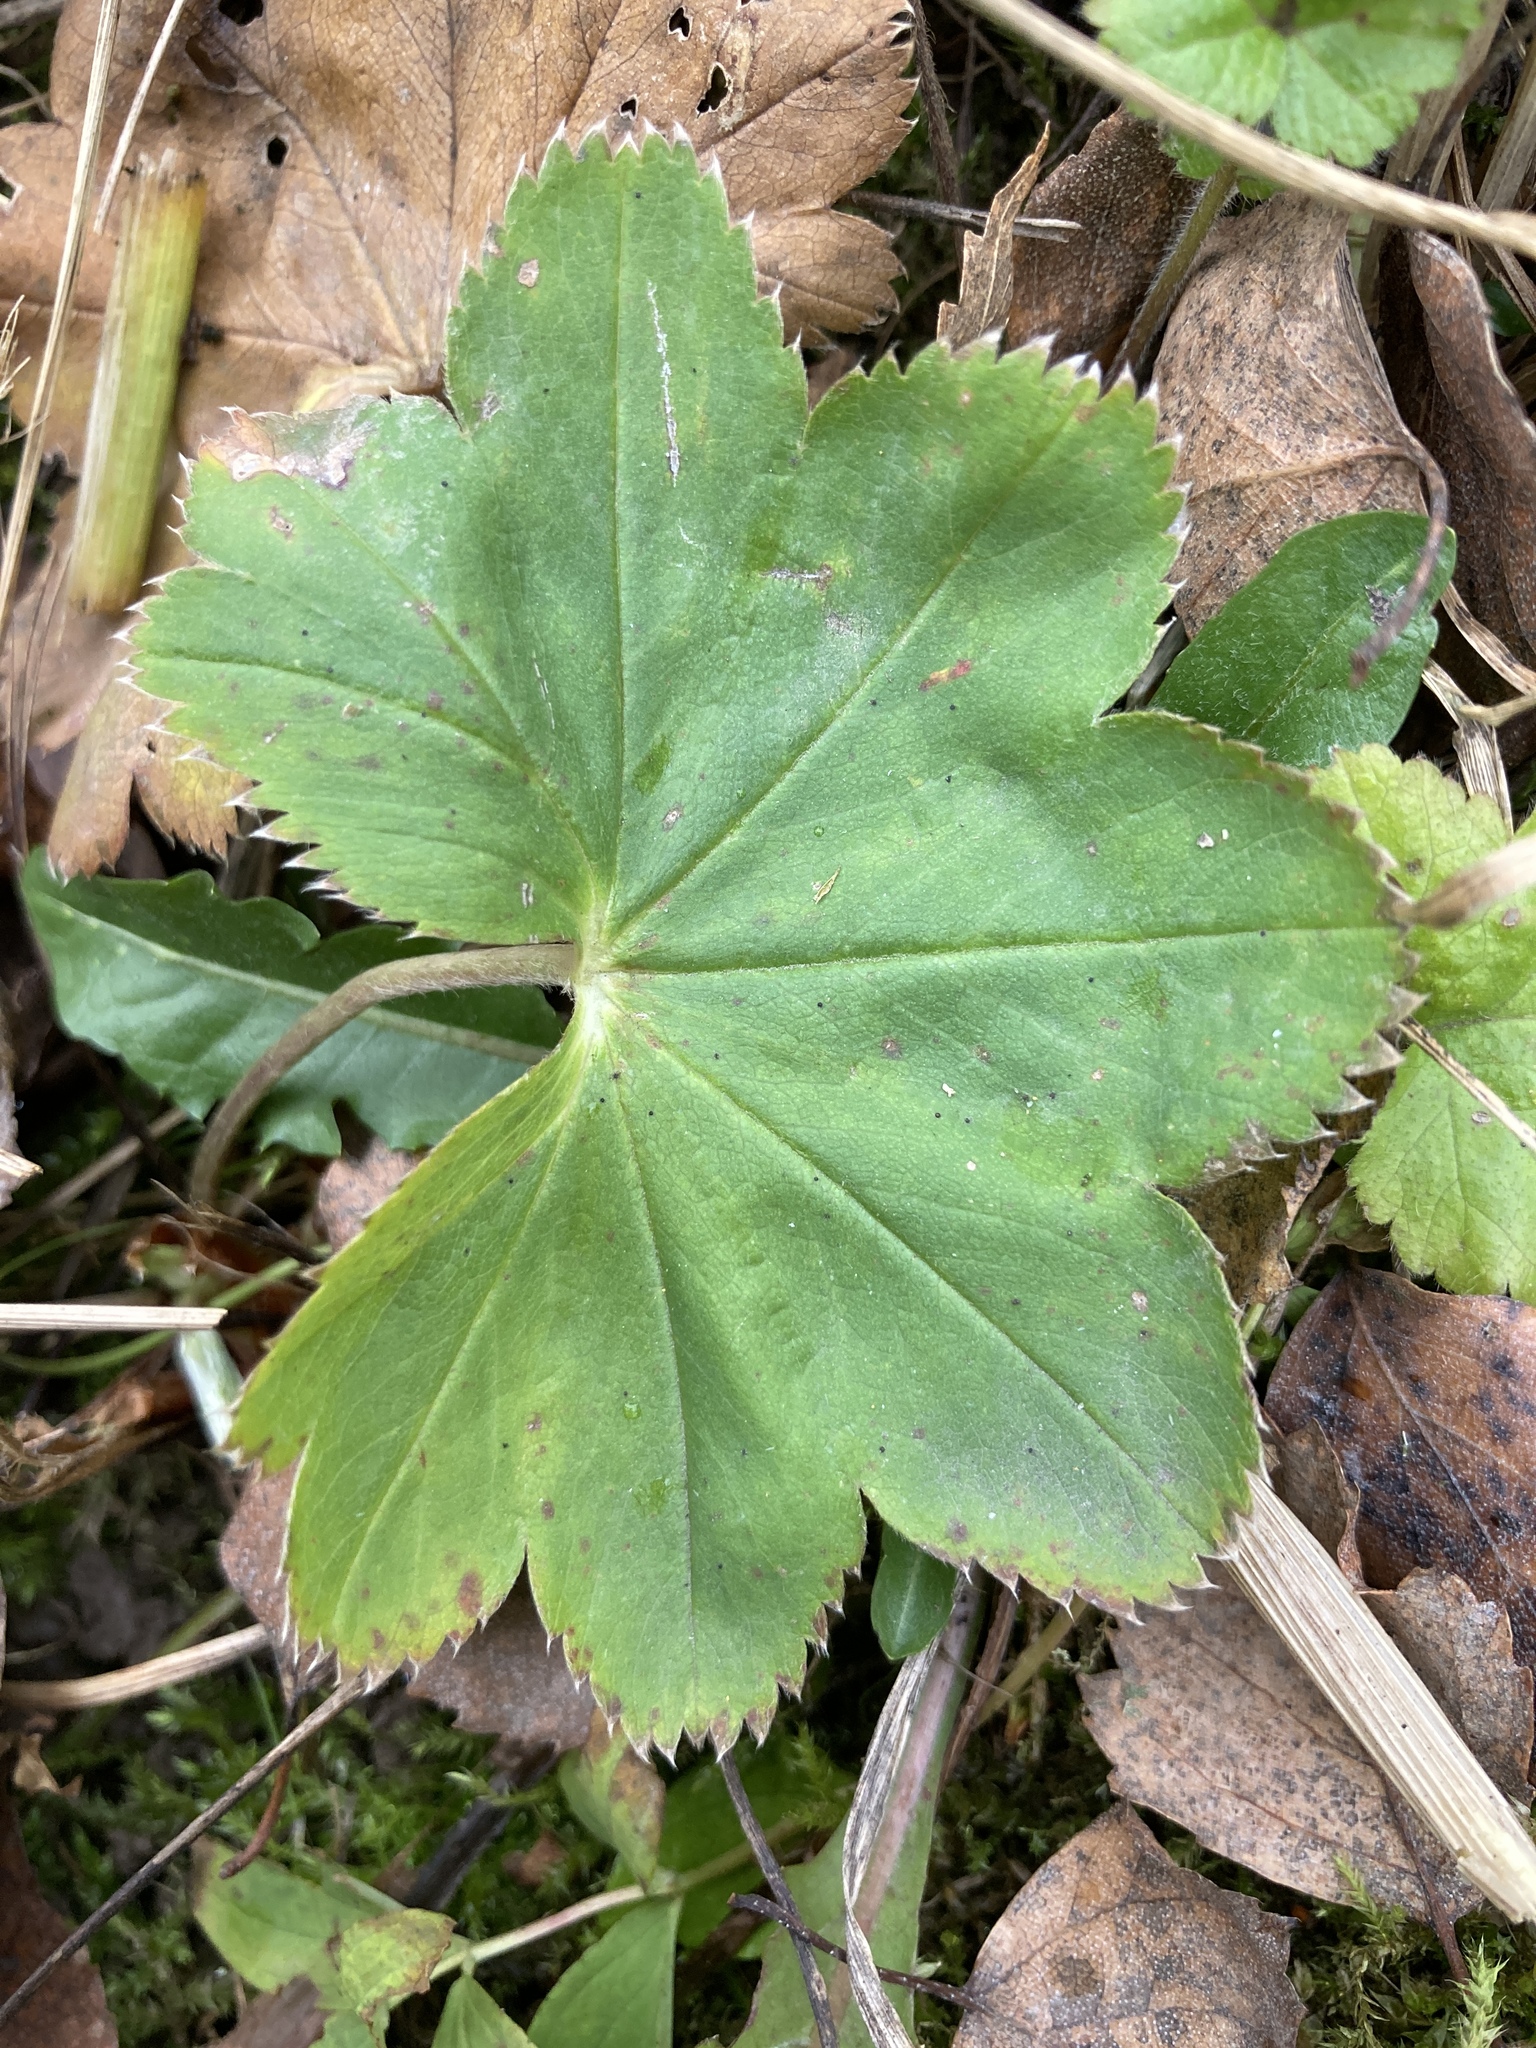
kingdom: Plantae
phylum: Tracheophyta
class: Magnoliopsida
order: Rosales
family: Rosaceae
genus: Alchemilla
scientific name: Alchemilla baltica
